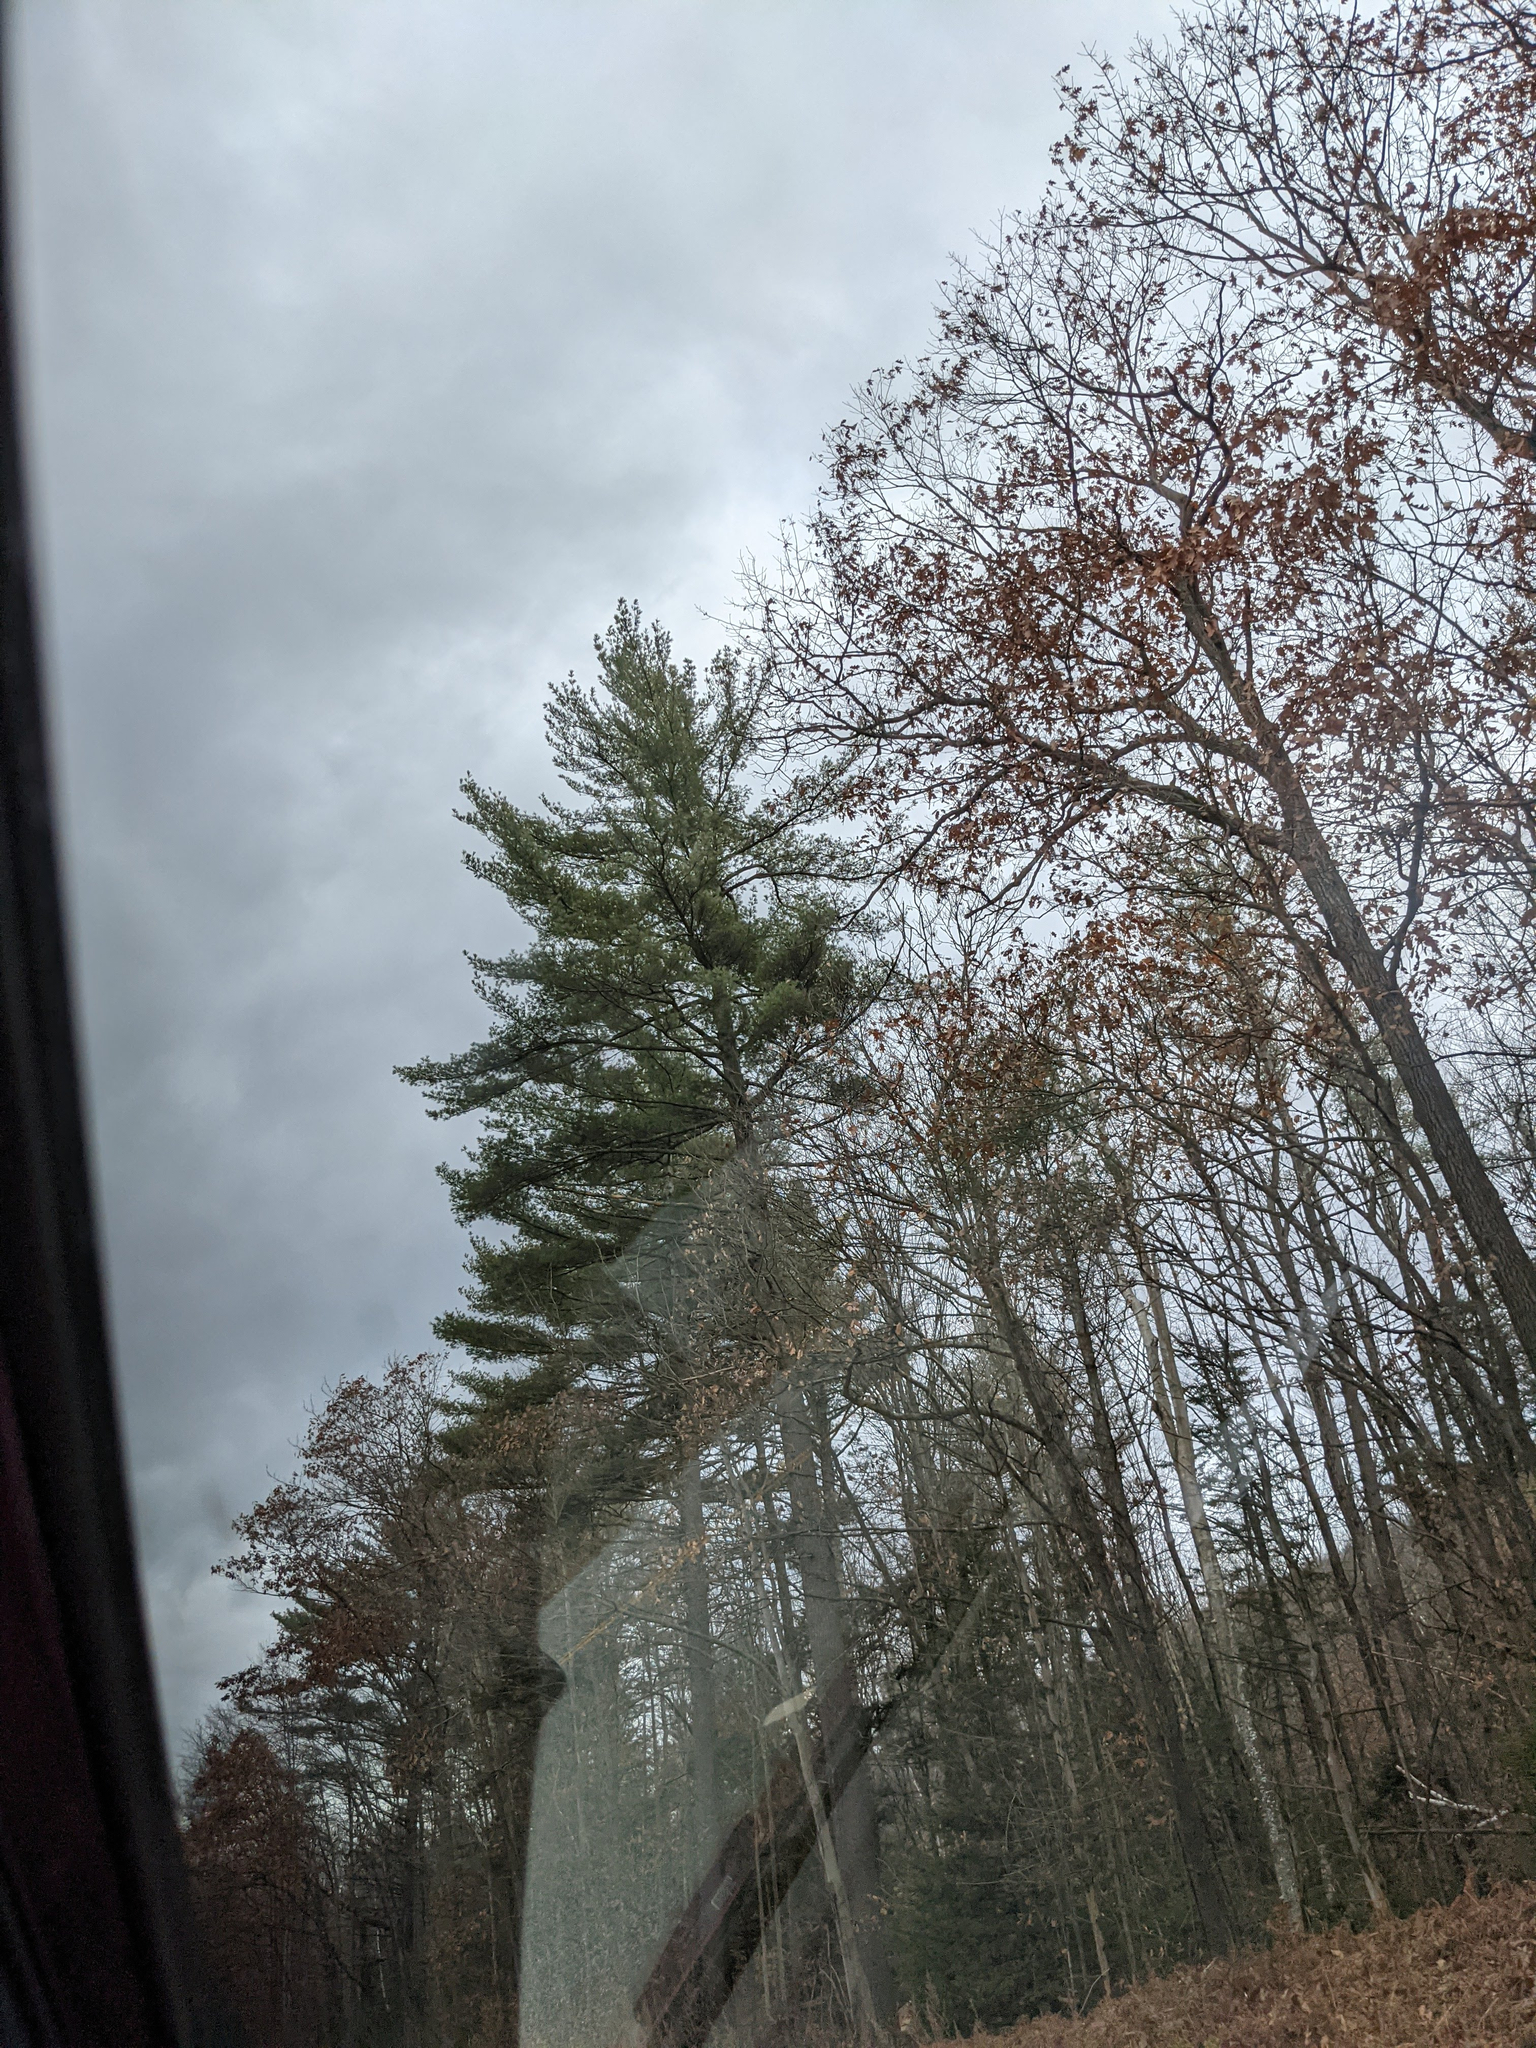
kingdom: Plantae
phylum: Tracheophyta
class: Pinopsida
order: Pinales
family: Pinaceae
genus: Pinus
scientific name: Pinus strobus
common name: Weymouth pine
